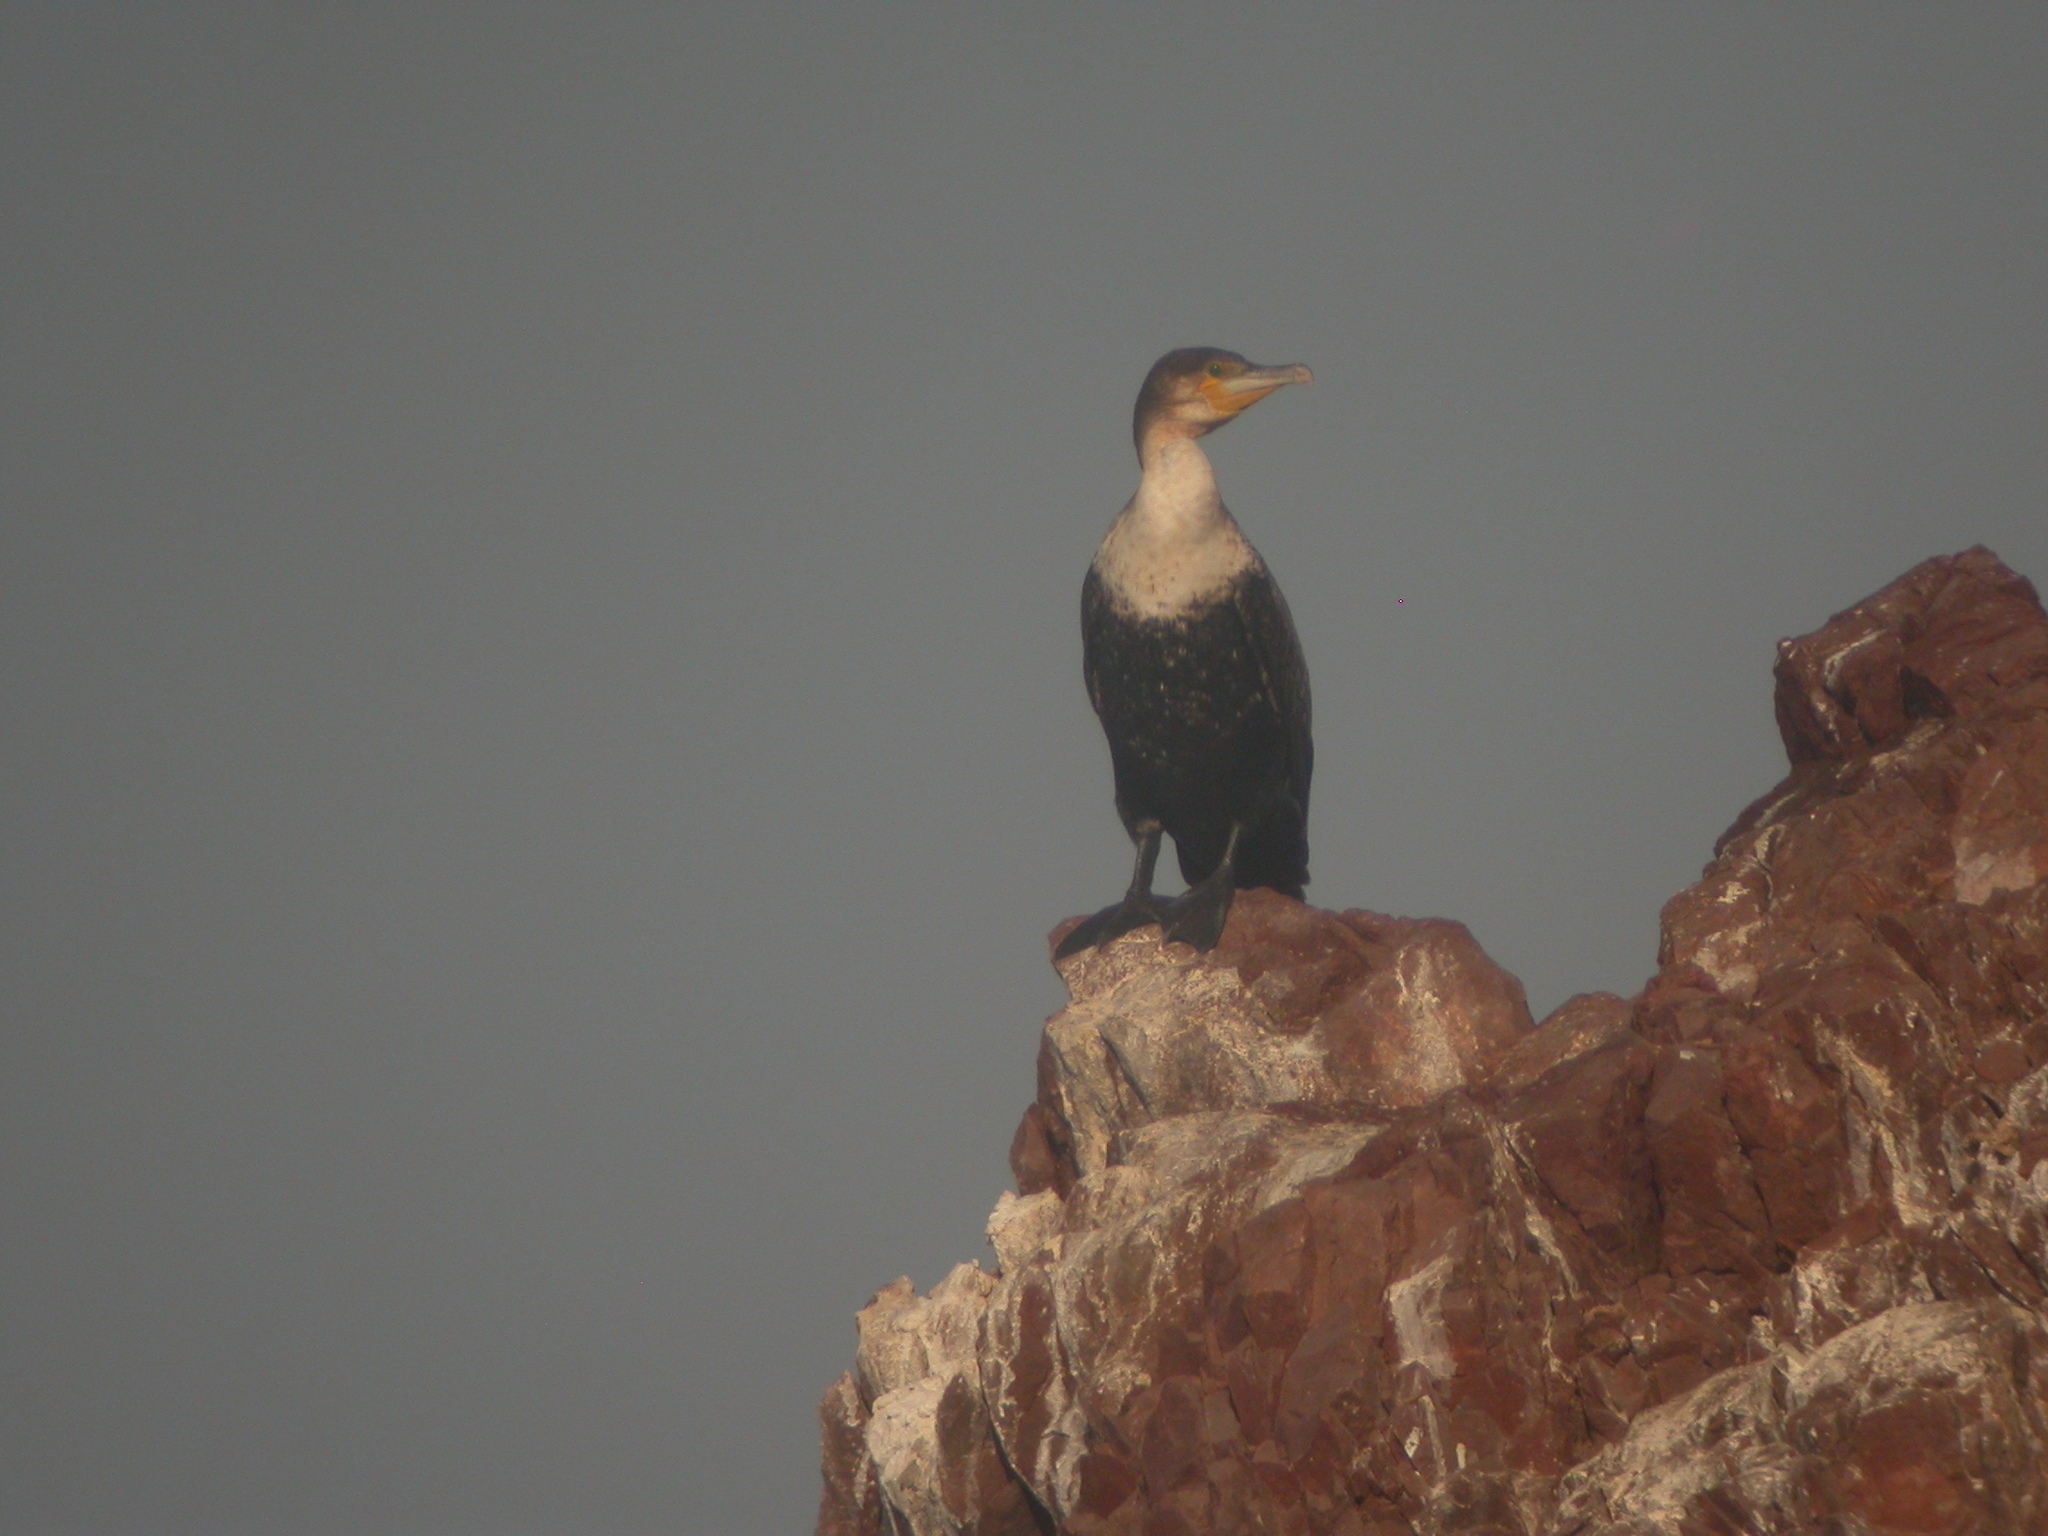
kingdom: Animalia
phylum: Chordata
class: Aves
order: Suliformes
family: Phalacrocoracidae
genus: Phalacrocorax
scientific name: Phalacrocorax carbo
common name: Great cormorant
